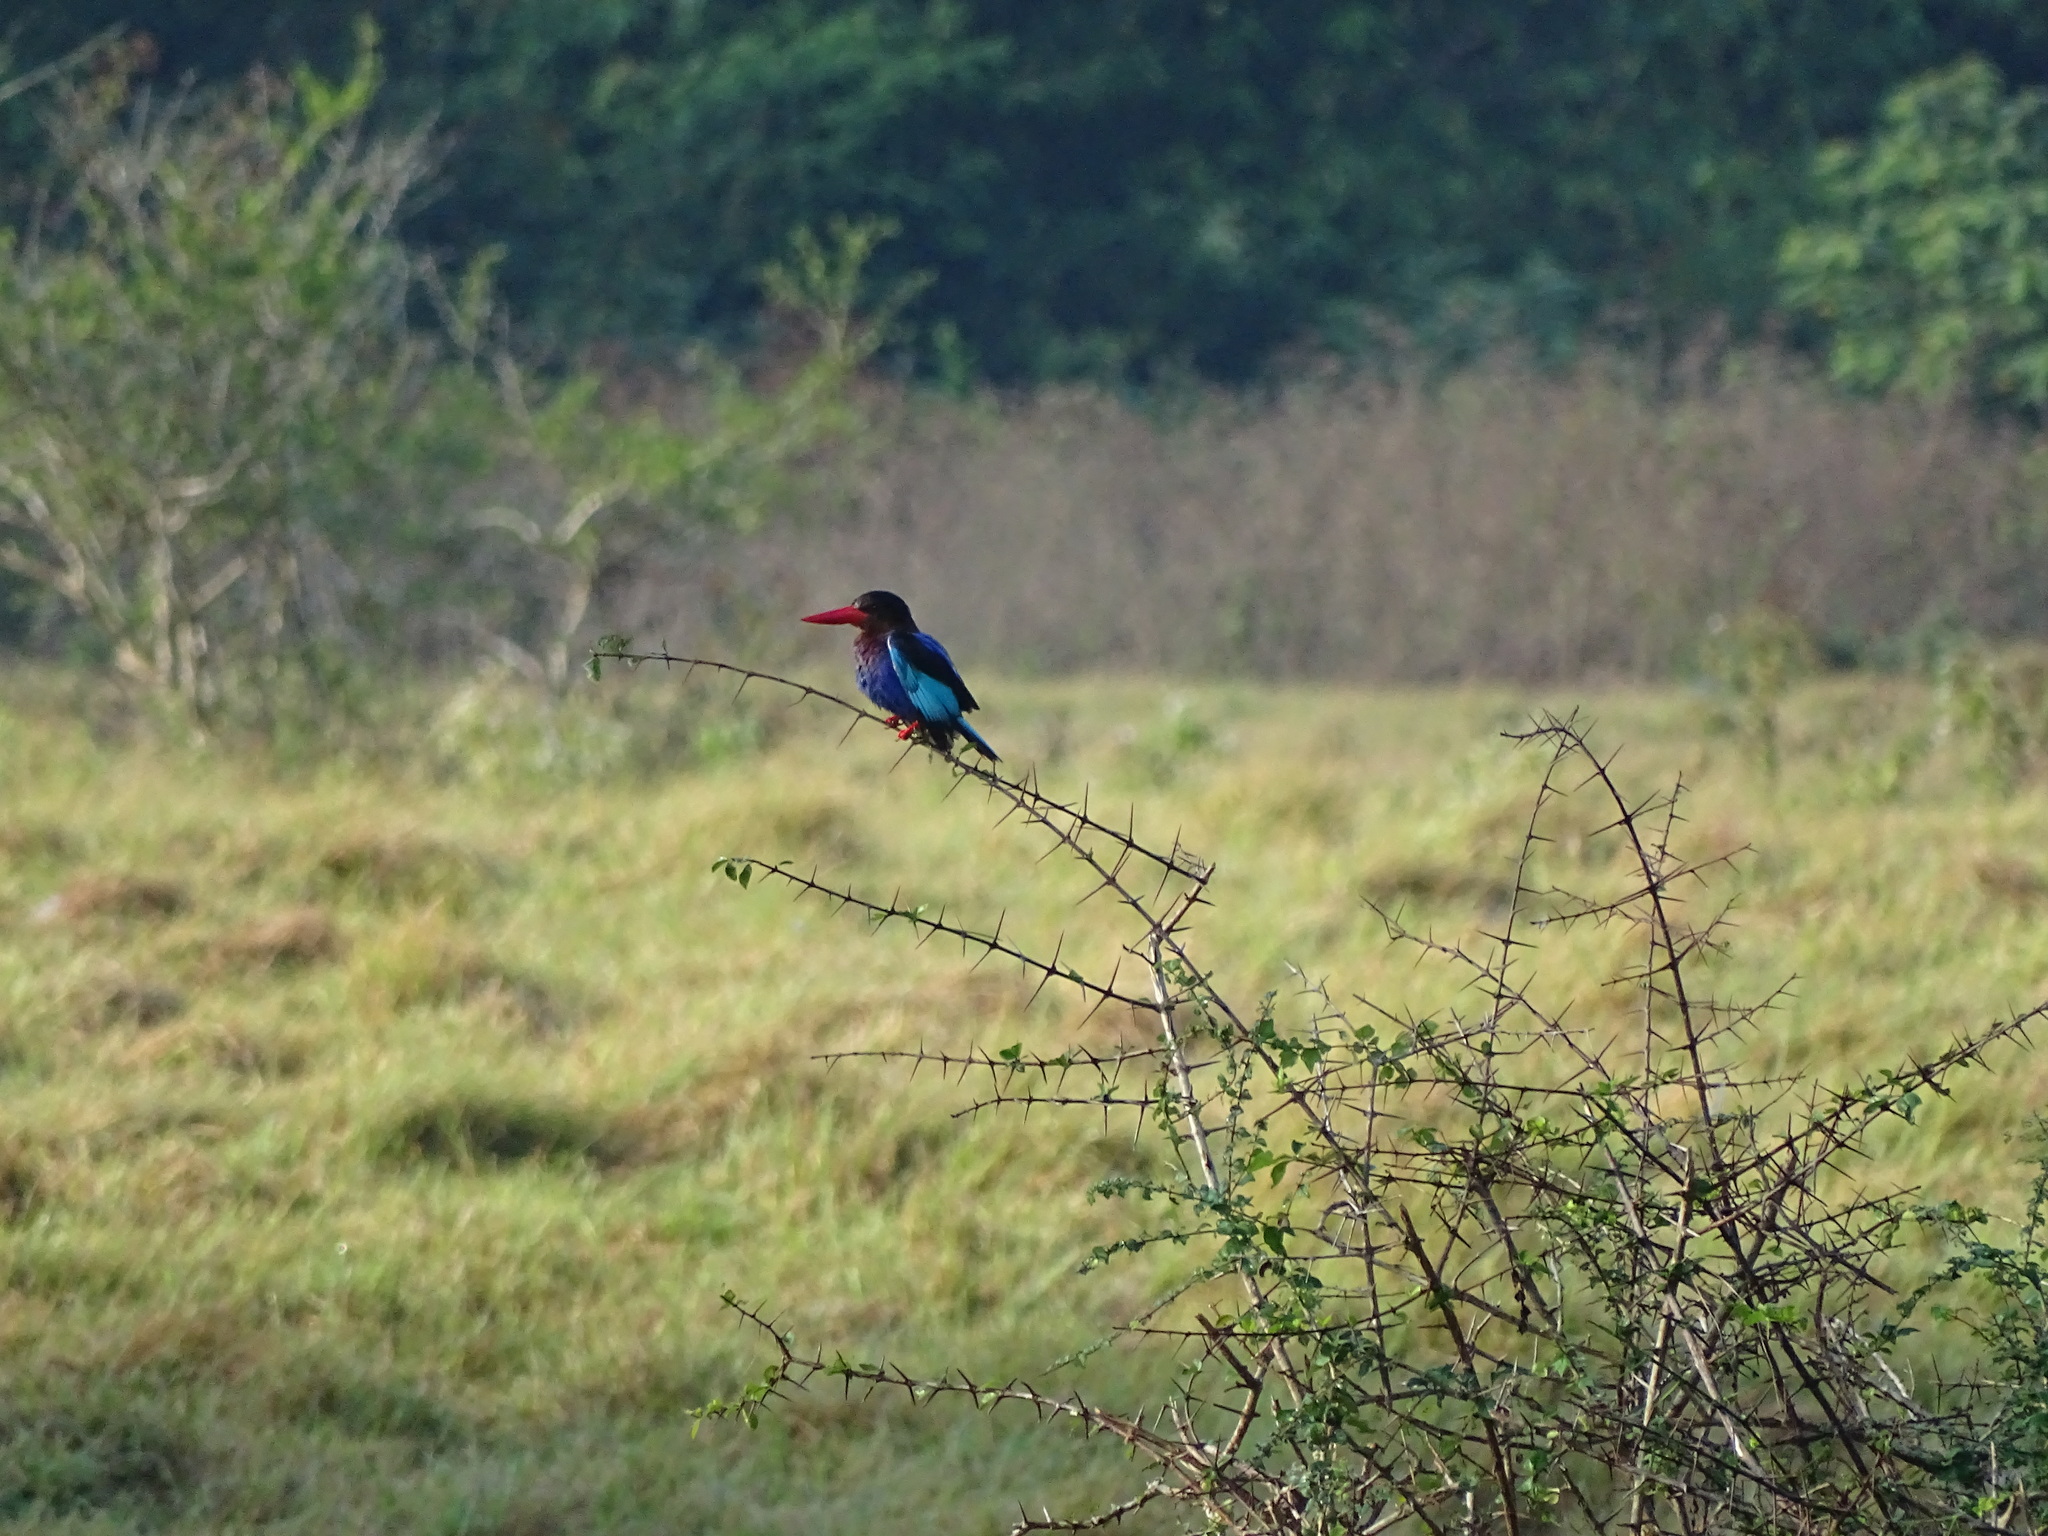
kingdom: Animalia
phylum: Chordata
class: Aves
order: Coraciiformes
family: Alcedinidae
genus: Halcyon
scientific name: Halcyon cyanoventris
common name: Javan kingfisher
